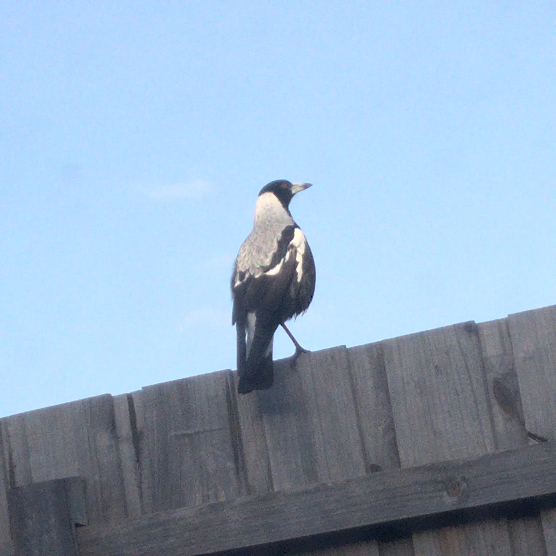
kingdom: Animalia
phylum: Chordata
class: Aves
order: Passeriformes
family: Cracticidae
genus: Gymnorhina
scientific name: Gymnorhina tibicen
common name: Australian magpie
